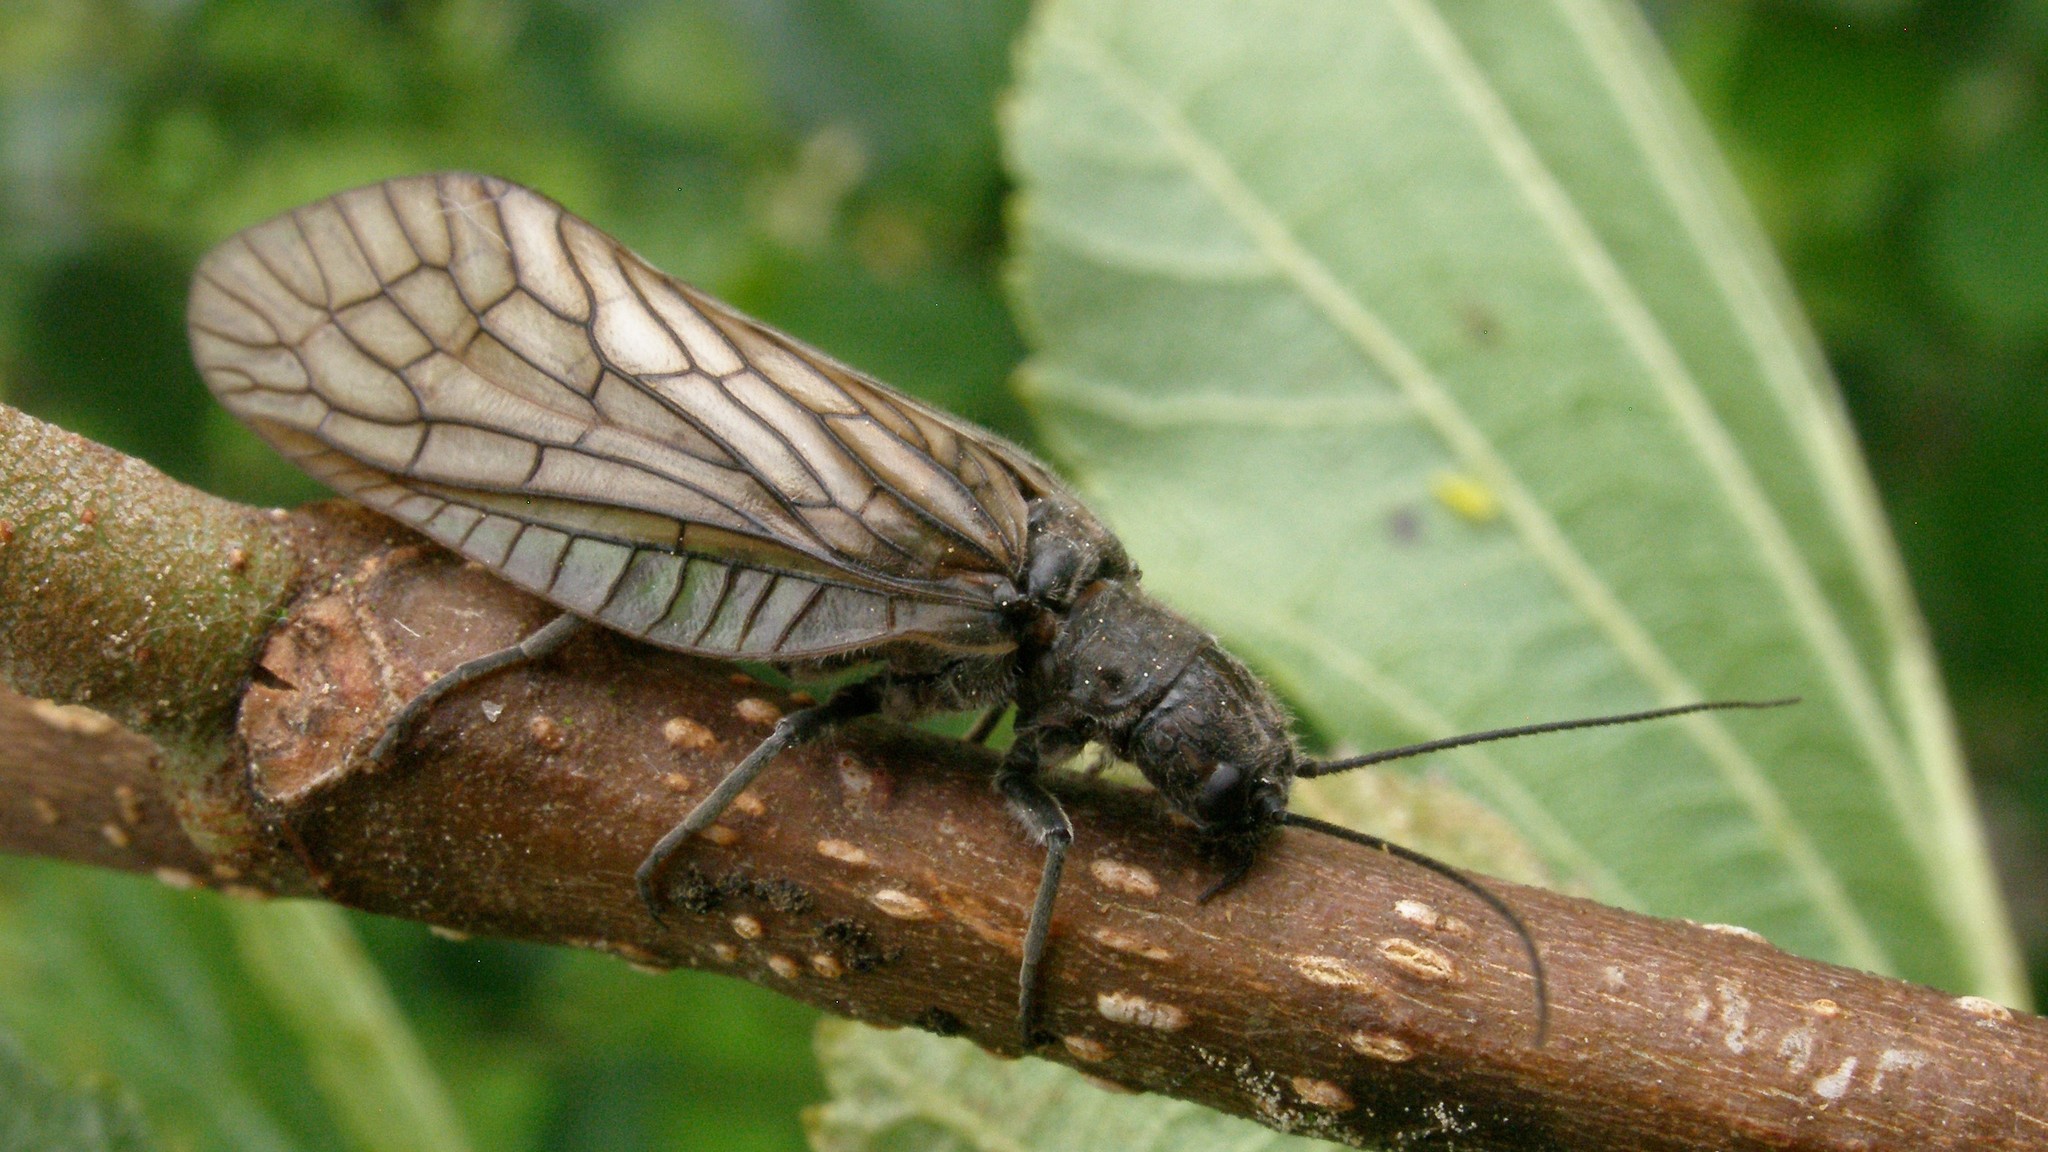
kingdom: Animalia
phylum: Arthropoda
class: Insecta
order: Megaloptera
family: Sialidae
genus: Sialis
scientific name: Sialis
